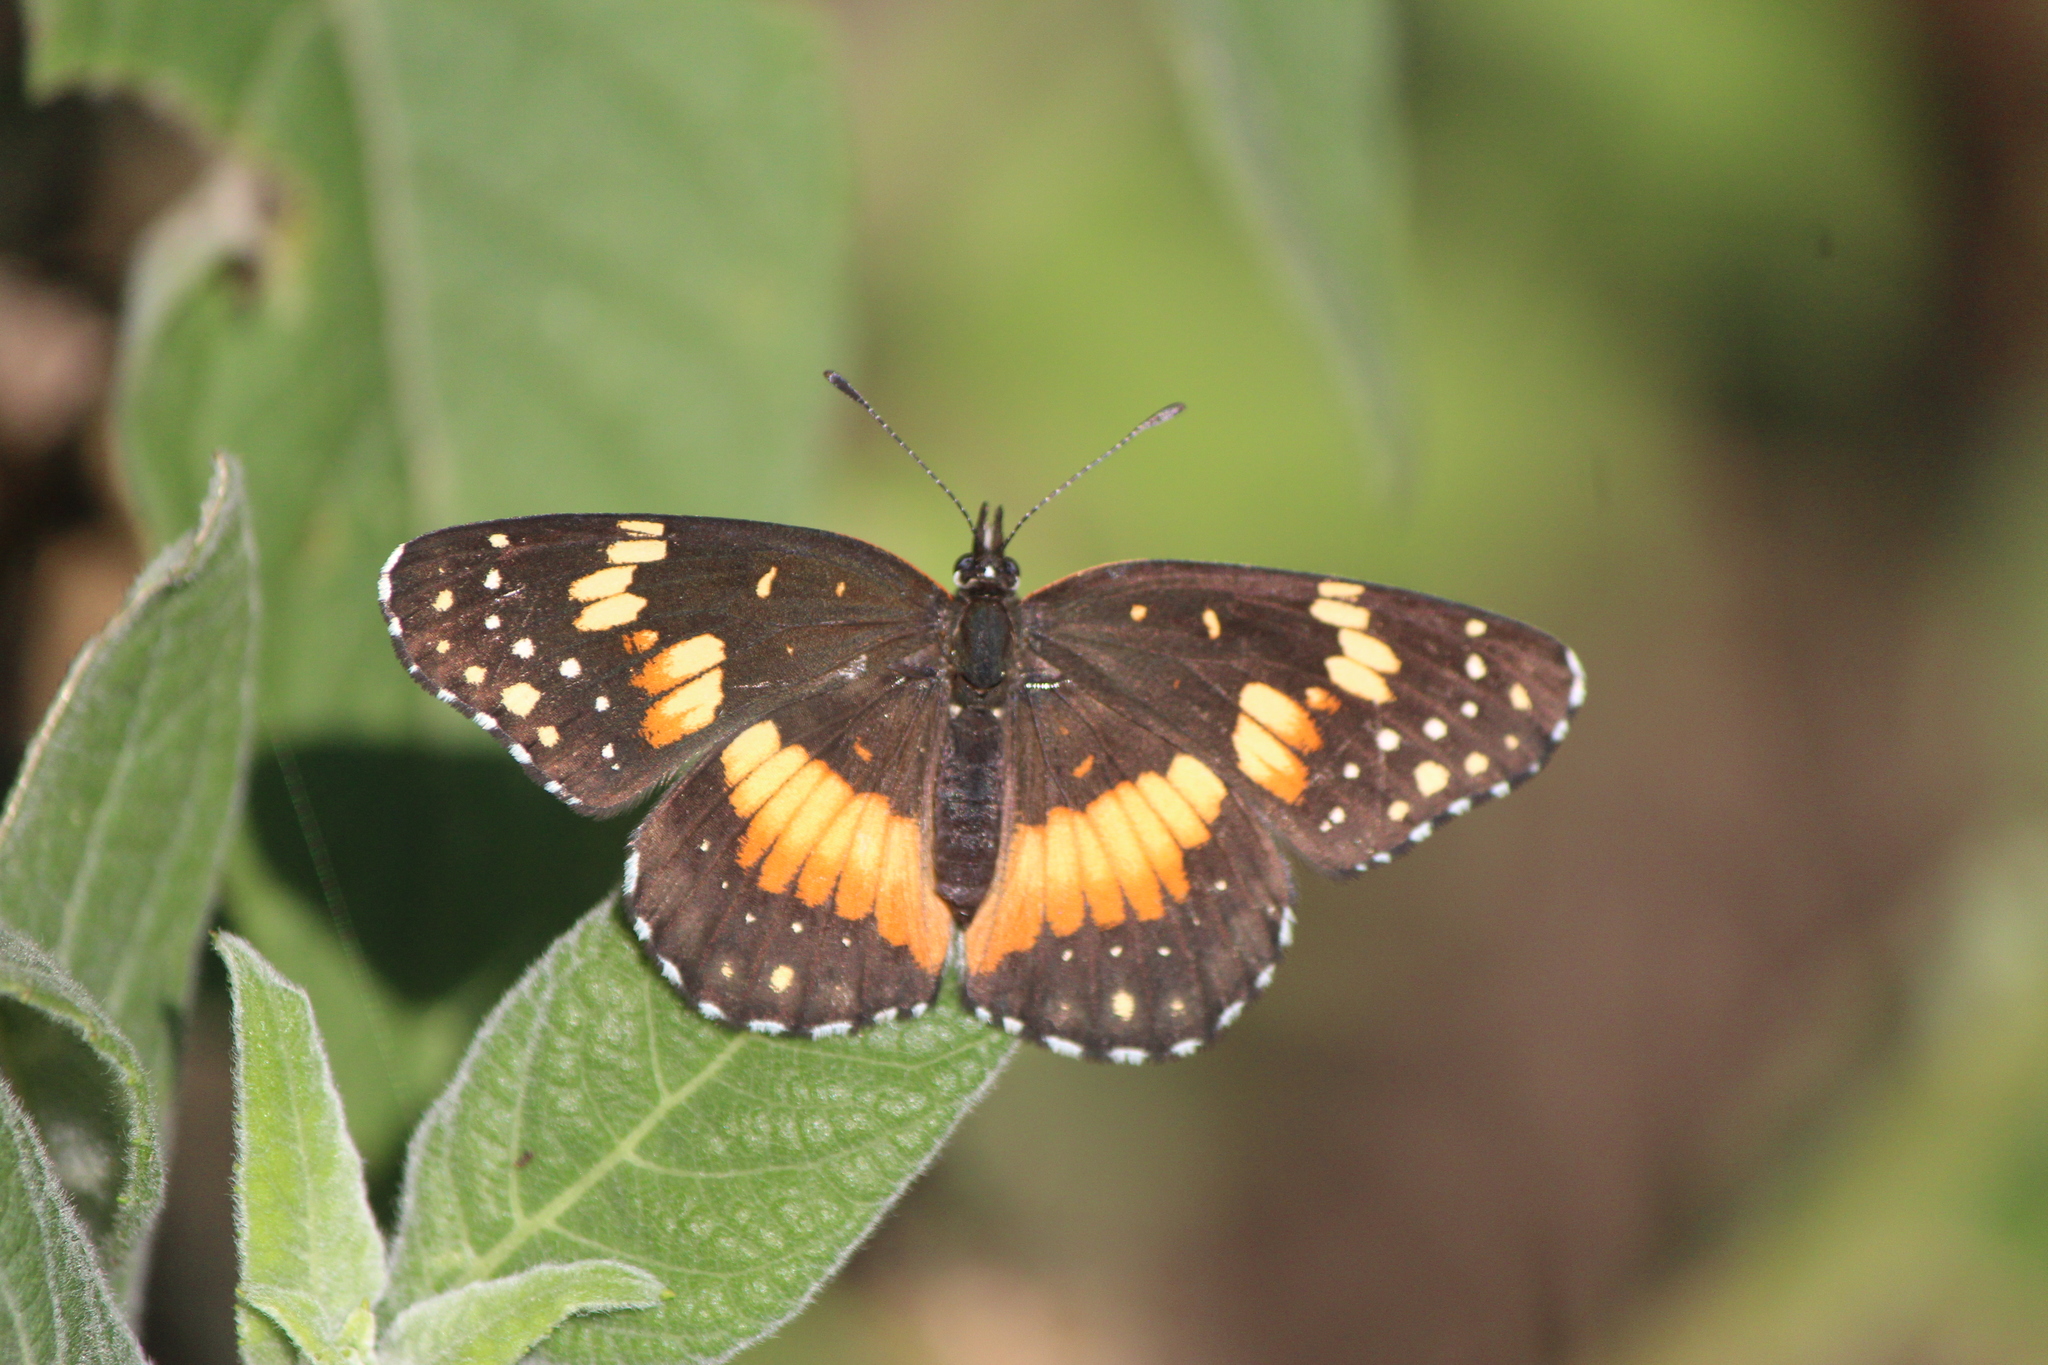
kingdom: Animalia
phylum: Arthropoda
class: Insecta
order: Lepidoptera
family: Nymphalidae
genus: Chlosyne
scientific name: Chlosyne lacinia
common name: Bordered patch
